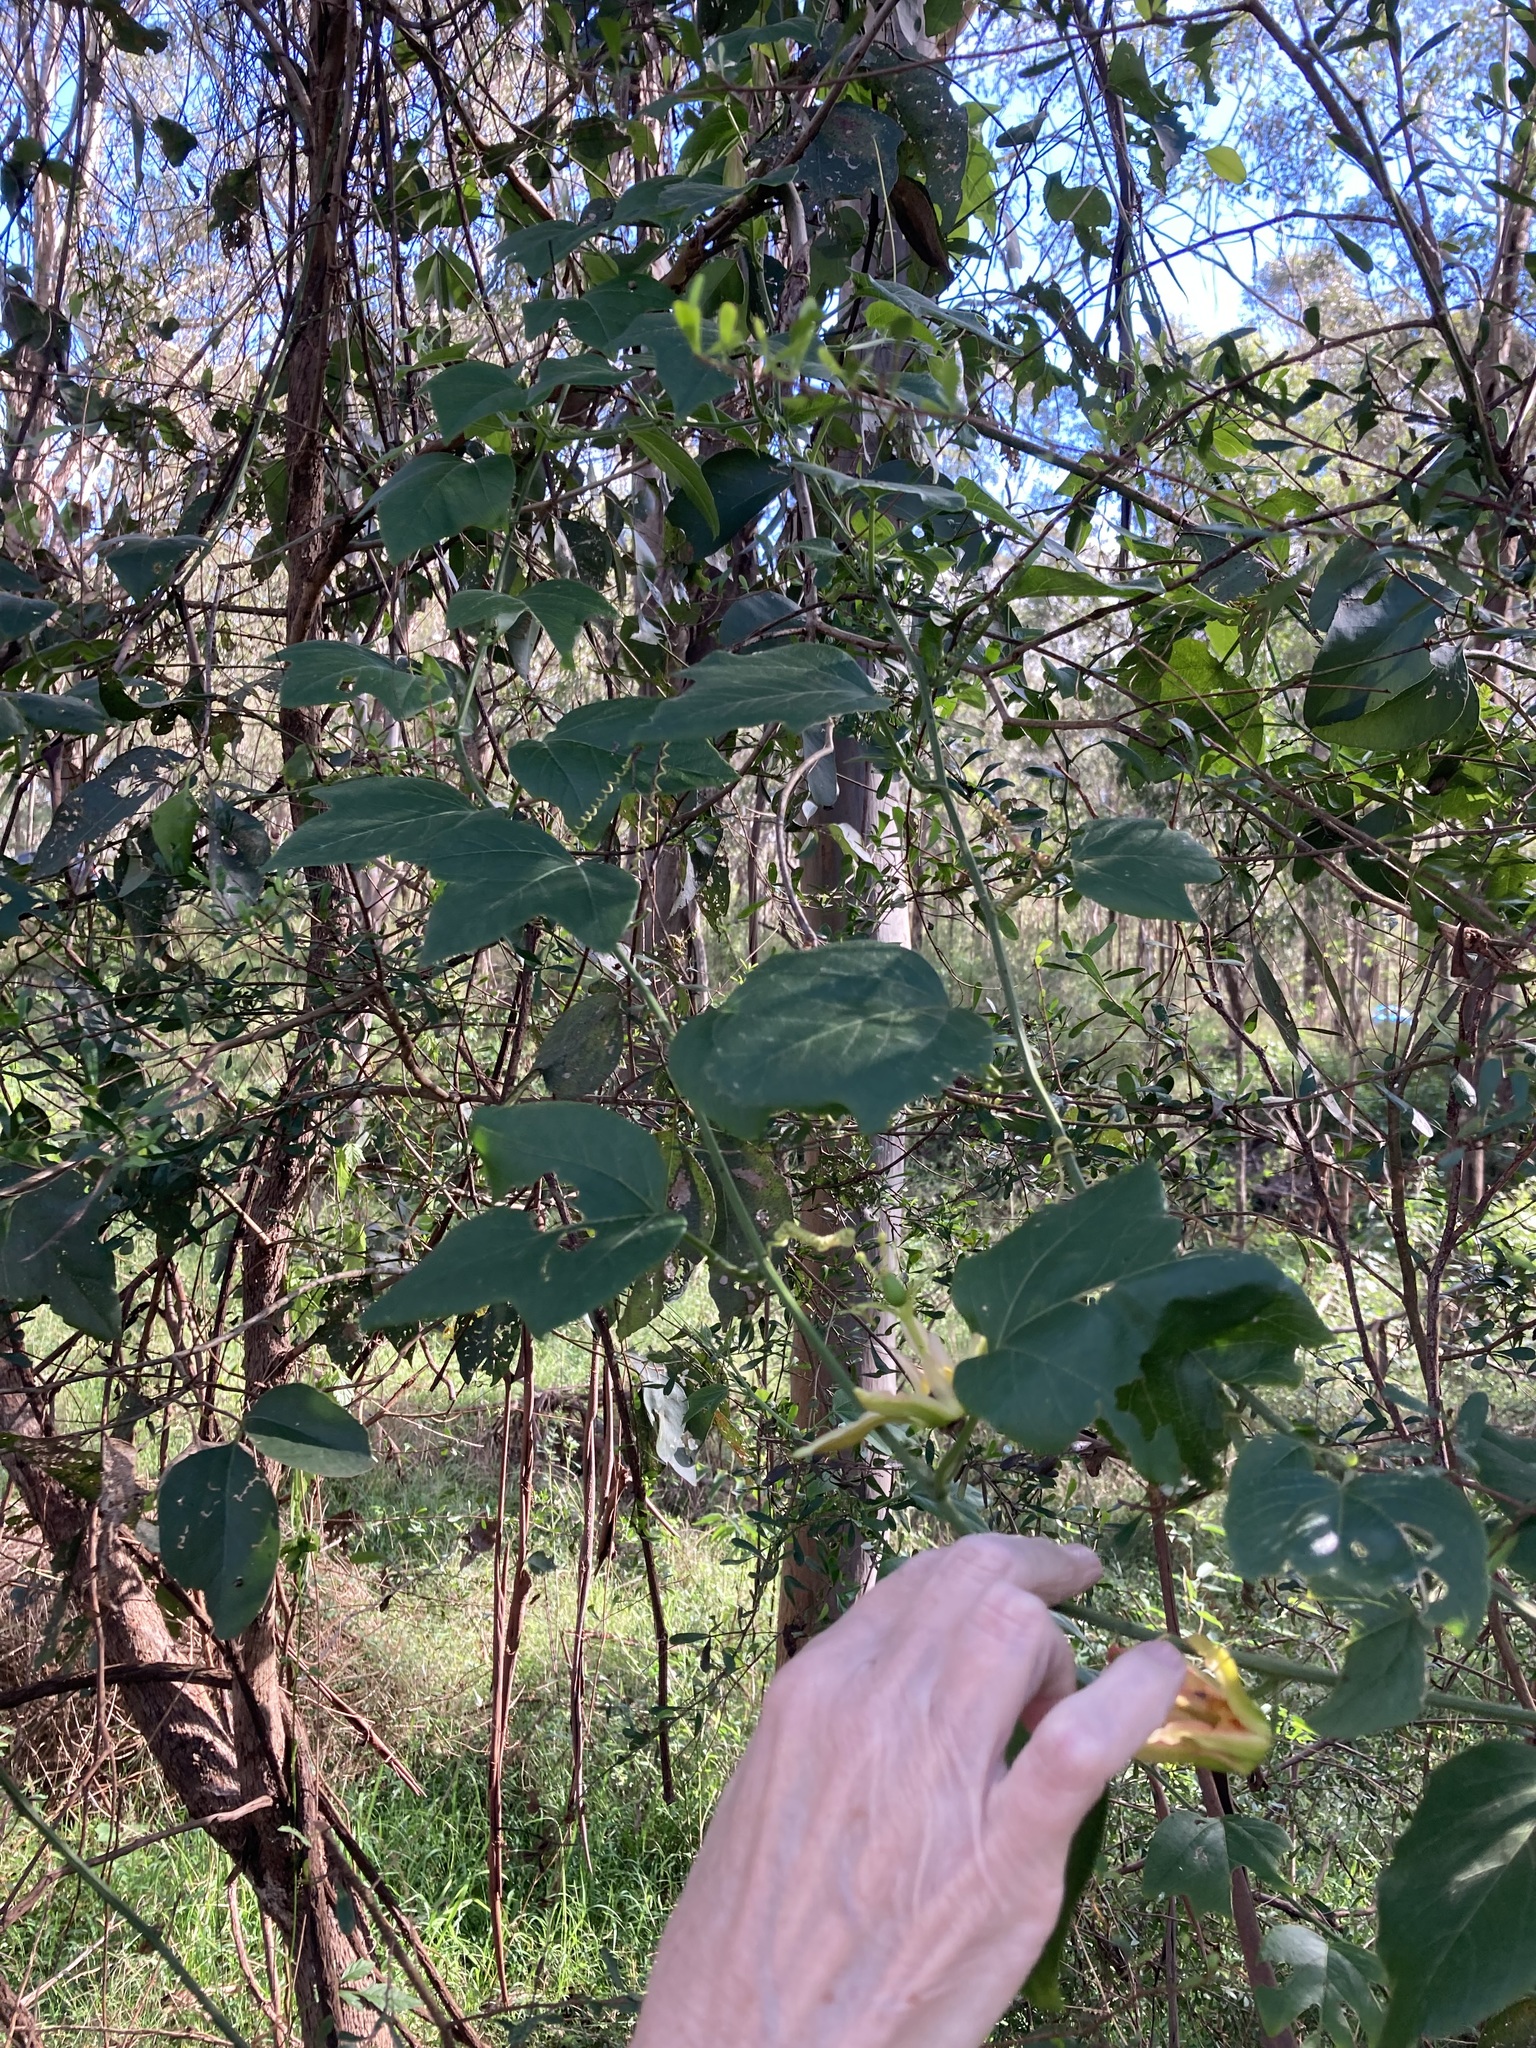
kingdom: Plantae
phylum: Tracheophyta
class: Magnoliopsida
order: Malpighiales
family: Passifloraceae
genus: Passiflora
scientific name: Passiflora herbertiana
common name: Yellow passionflower
